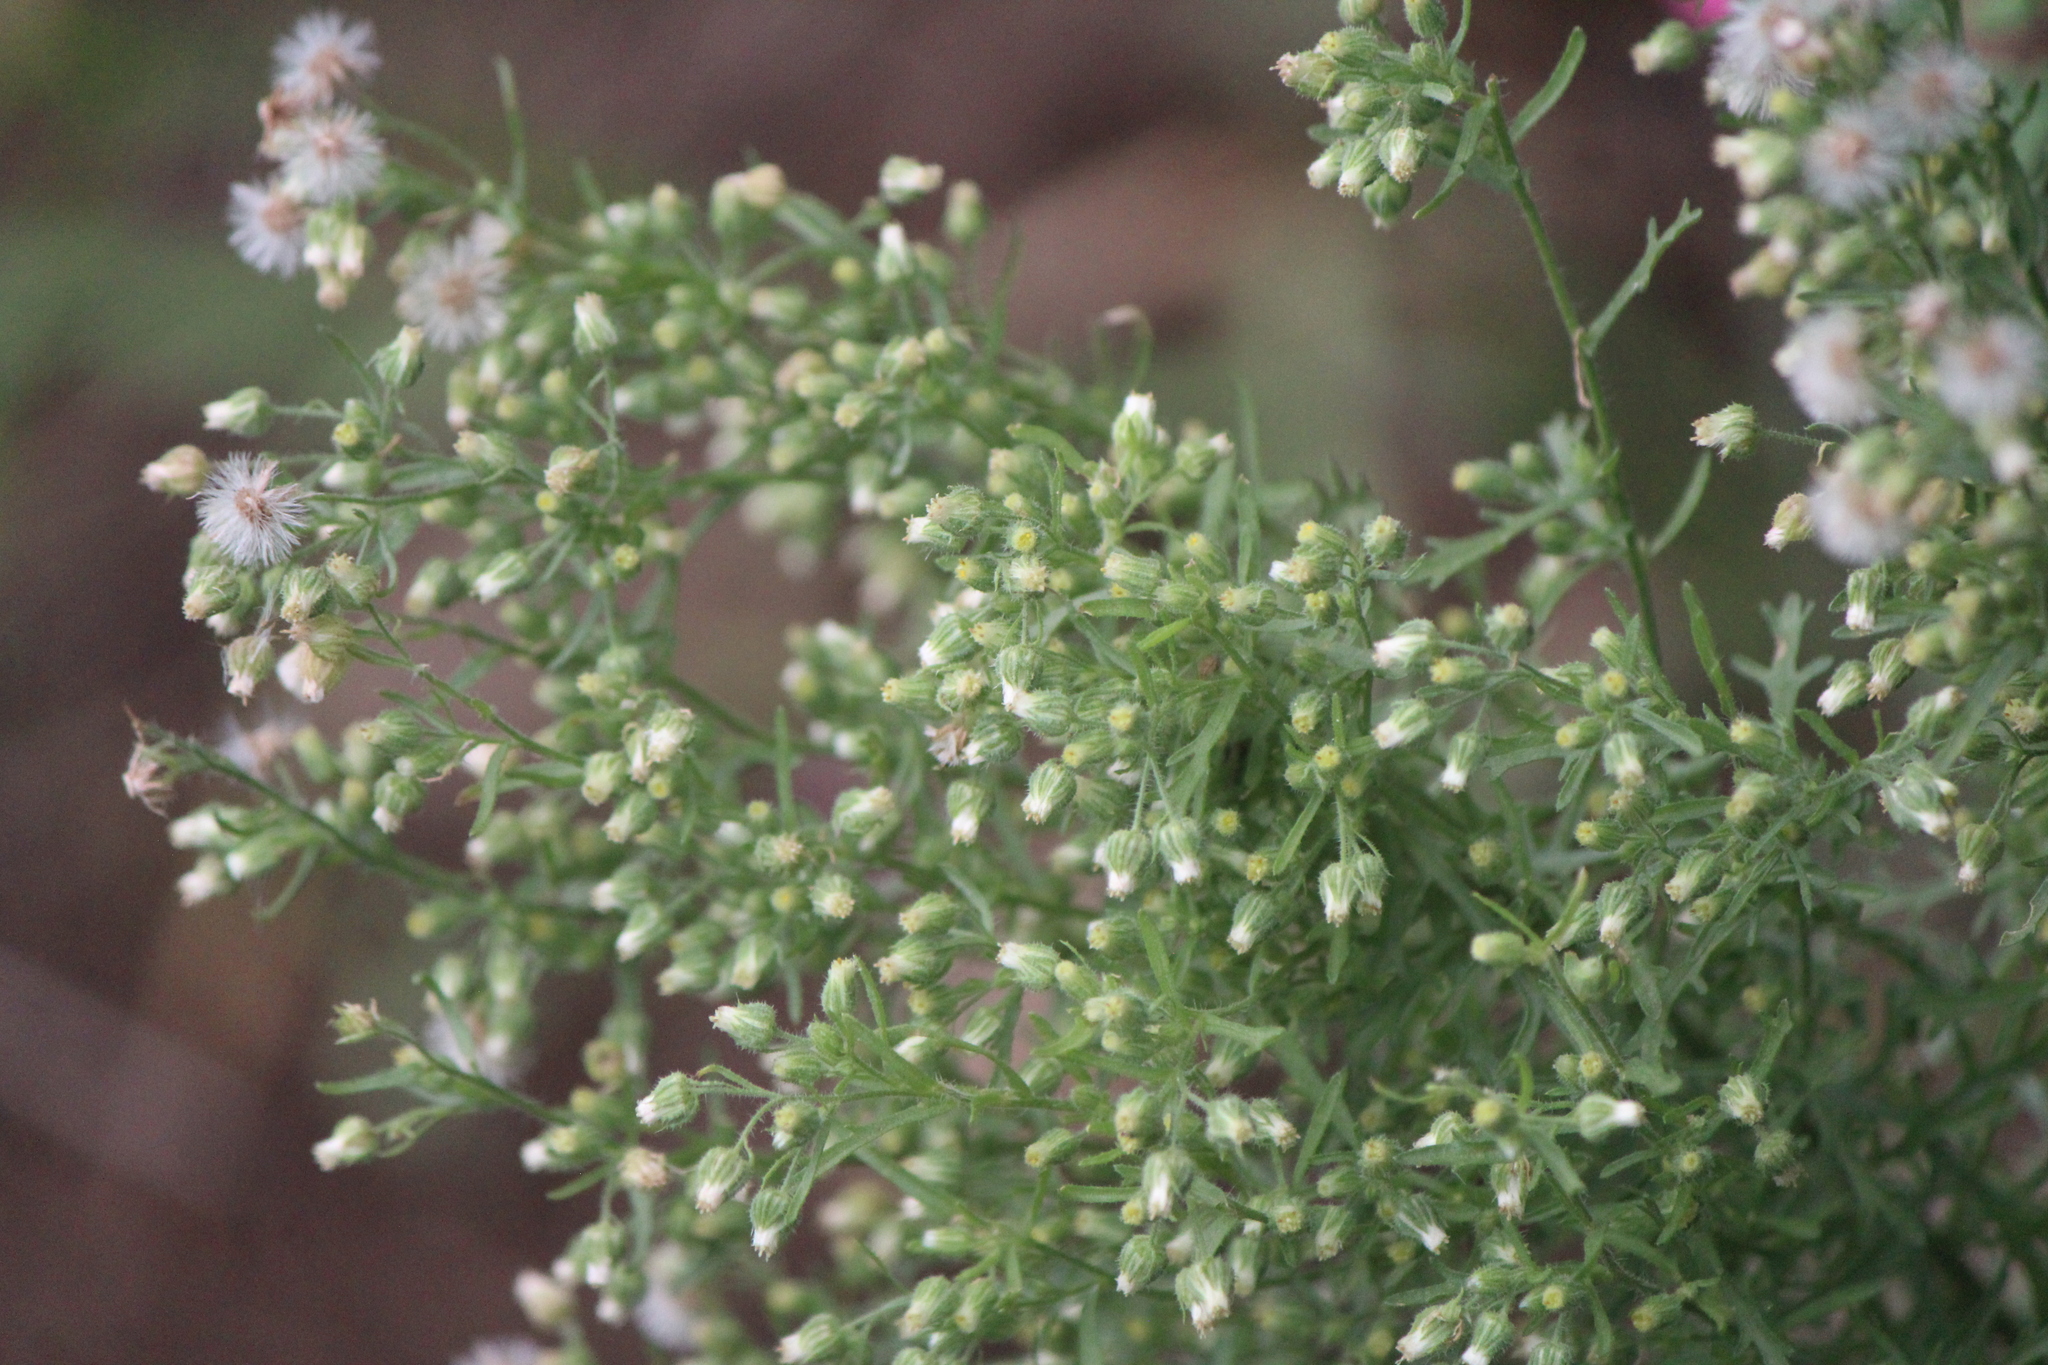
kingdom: Plantae
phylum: Tracheophyta
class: Magnoliopsida
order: Asterales
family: Asteraceae
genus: Laennecia
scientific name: Laennecia sophiifolia
